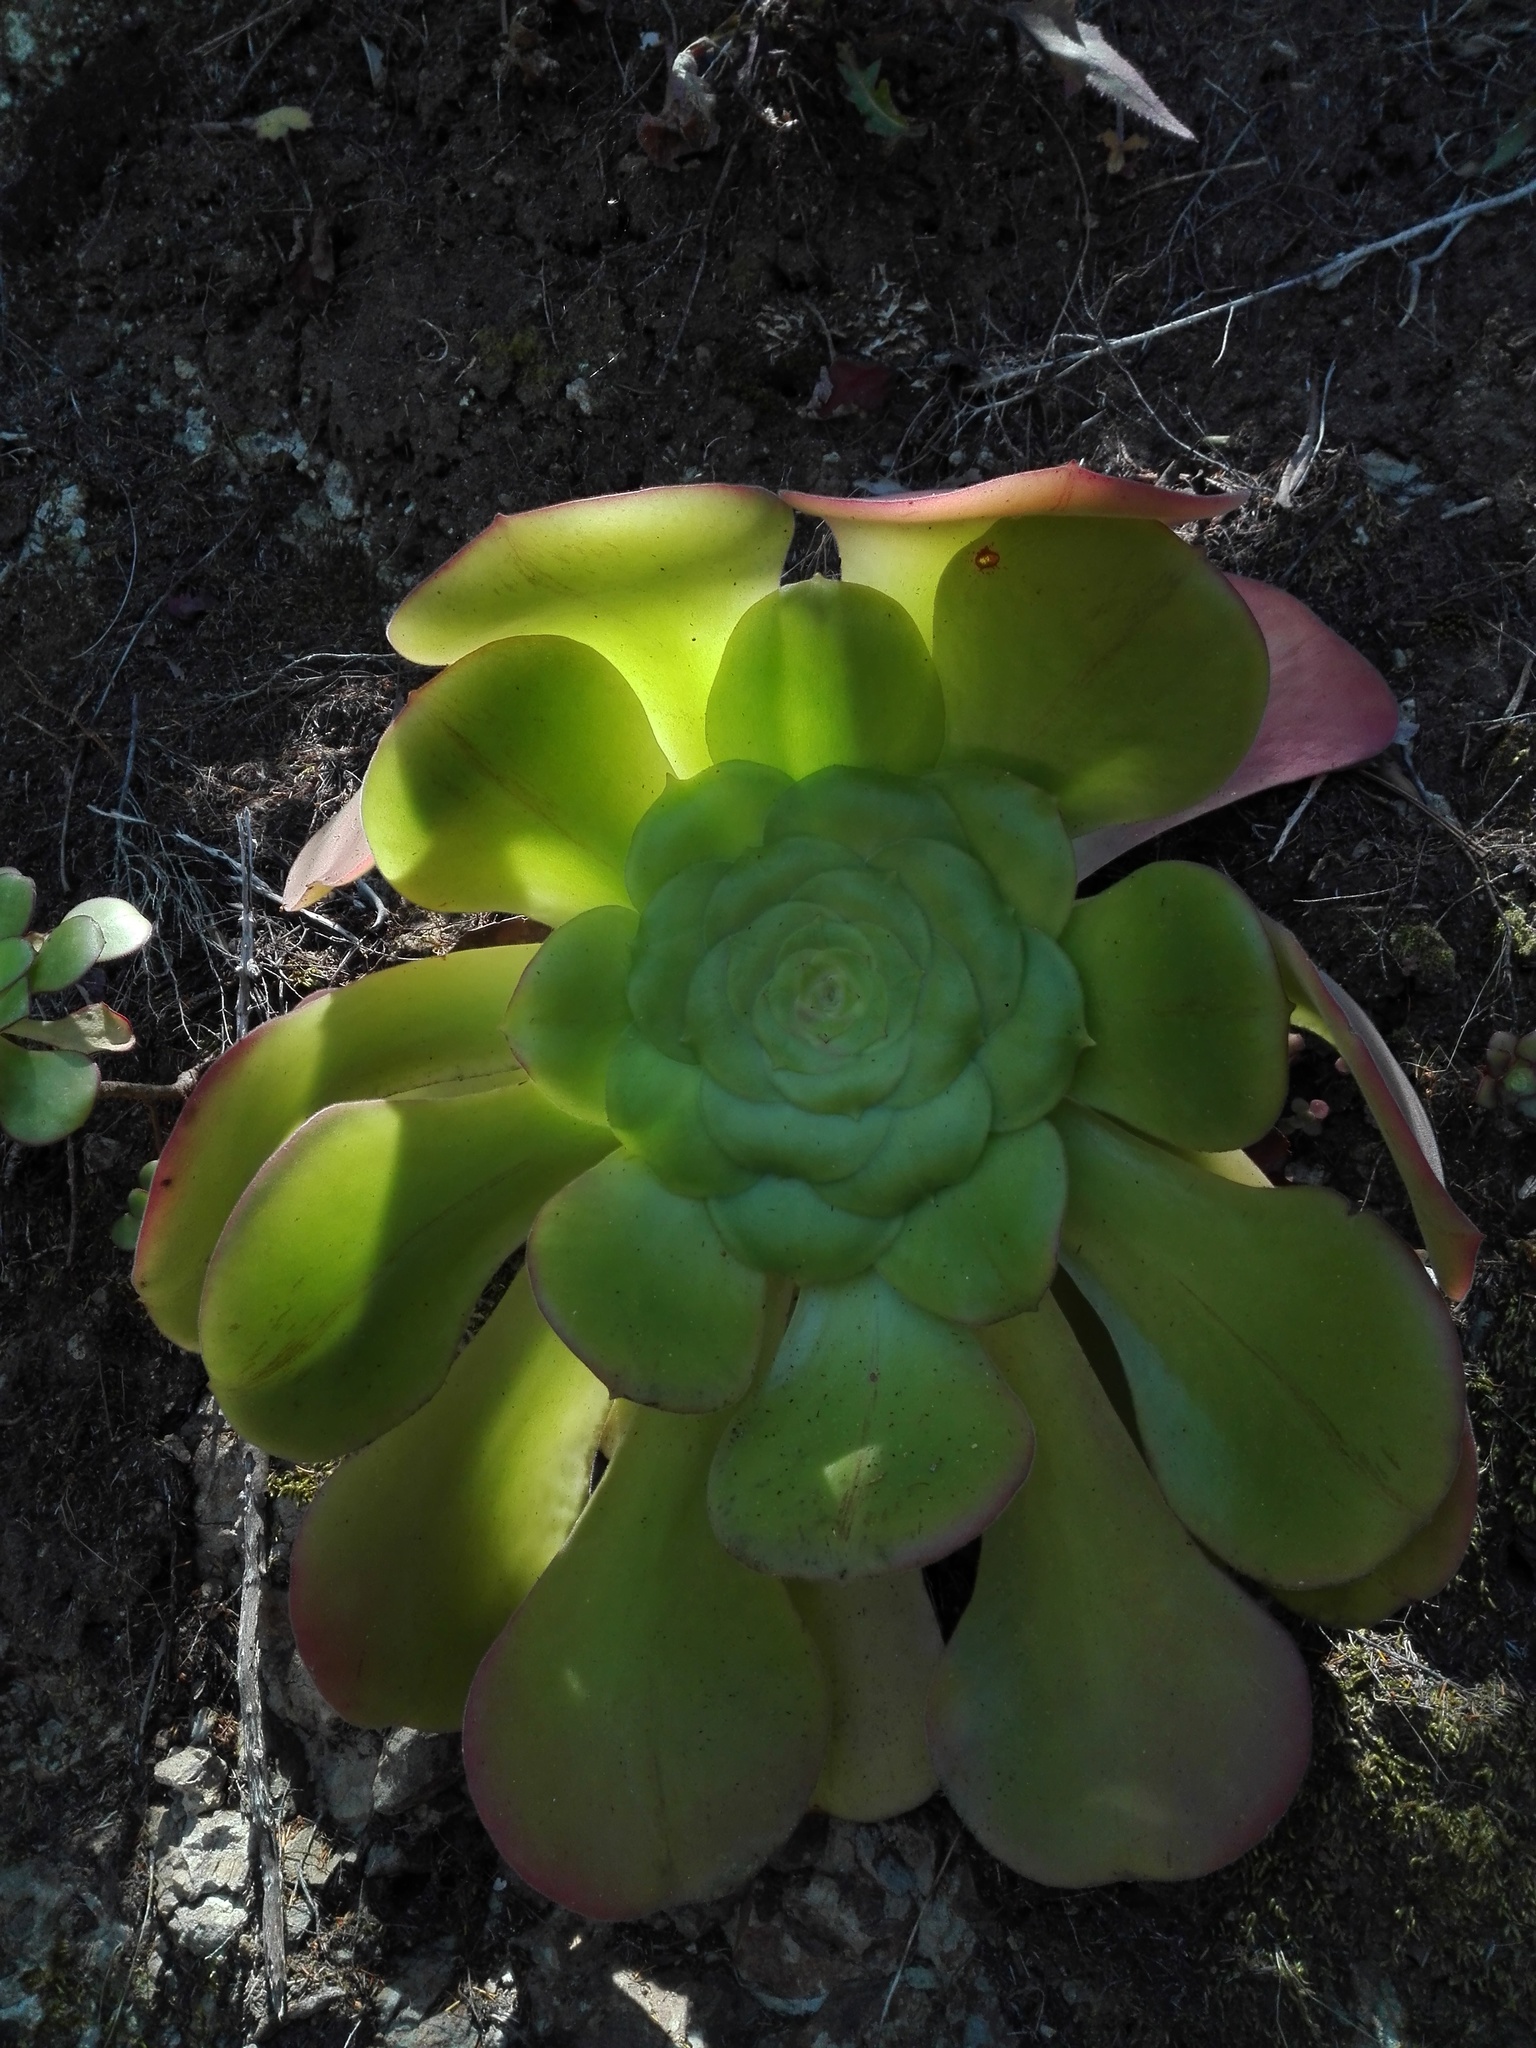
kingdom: Plantae
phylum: Tracheophyta
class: Magnoliopsida
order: Saxifragales
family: Crassulaceae
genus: Aeonium
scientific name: Aeonium canariense
